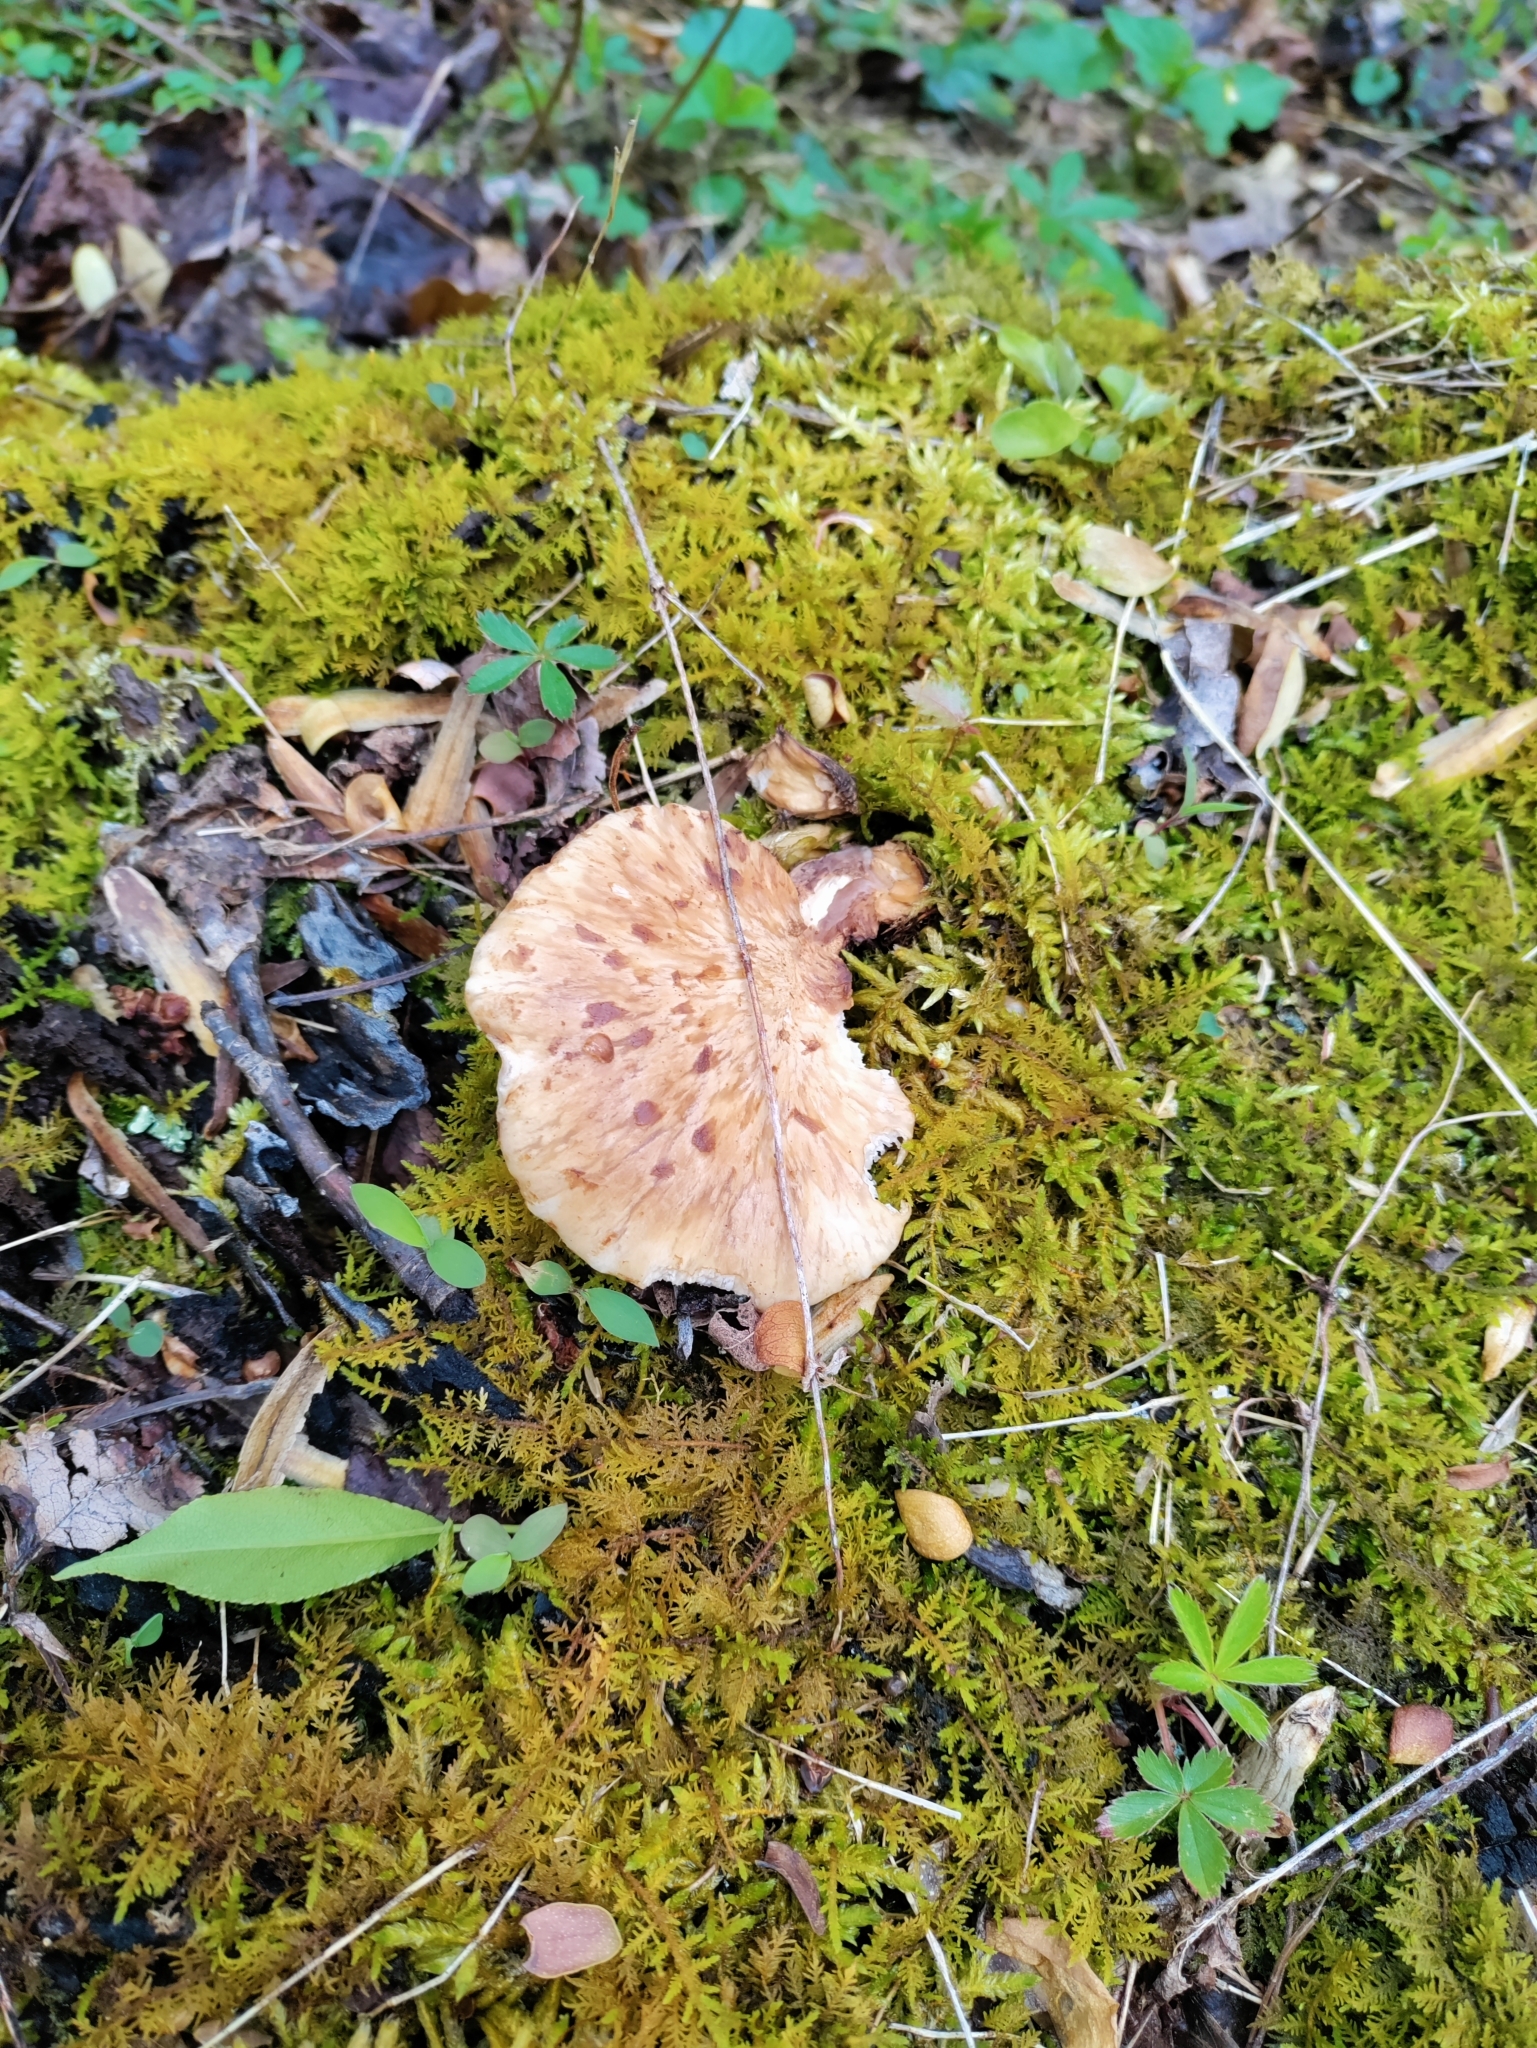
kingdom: Fungi
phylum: Basidiomycota
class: Agaricomycetes
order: Polyporales
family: Polyporaceae
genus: Cerioporus
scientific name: Cerioporus squamosus
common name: Dryad's saddle
